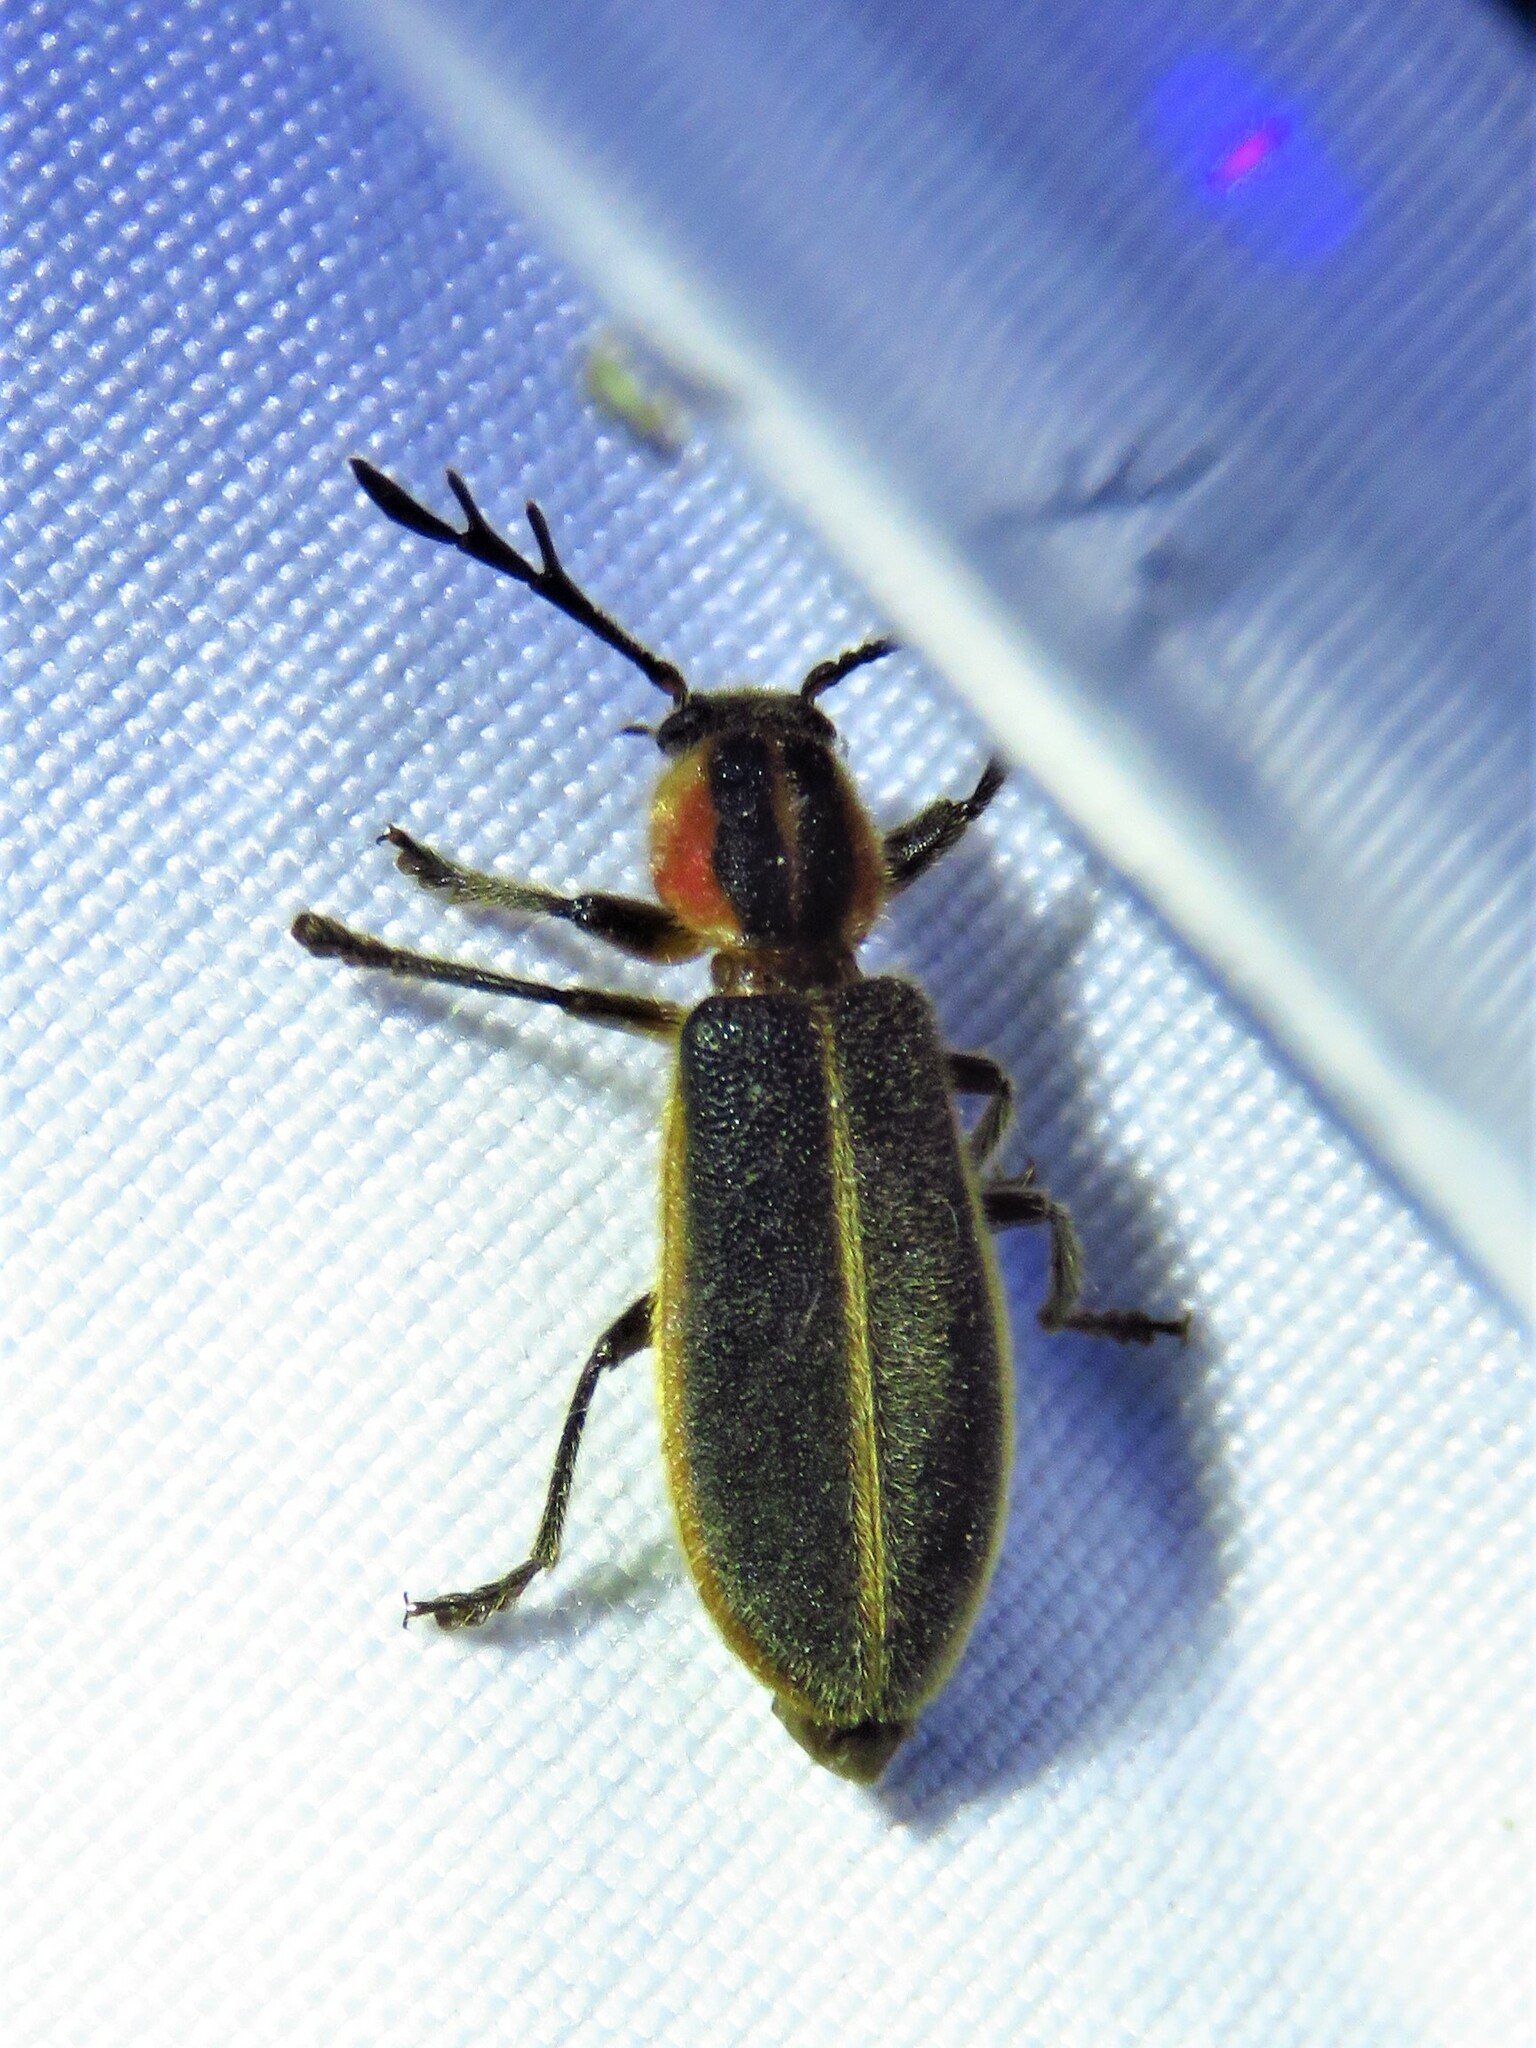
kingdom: Animalia
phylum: Arthropoda
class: Insecta
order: Coleoptera
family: Cleridae
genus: Chariessa
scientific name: Chariessa pilosa
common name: Pilose checkered beetle
